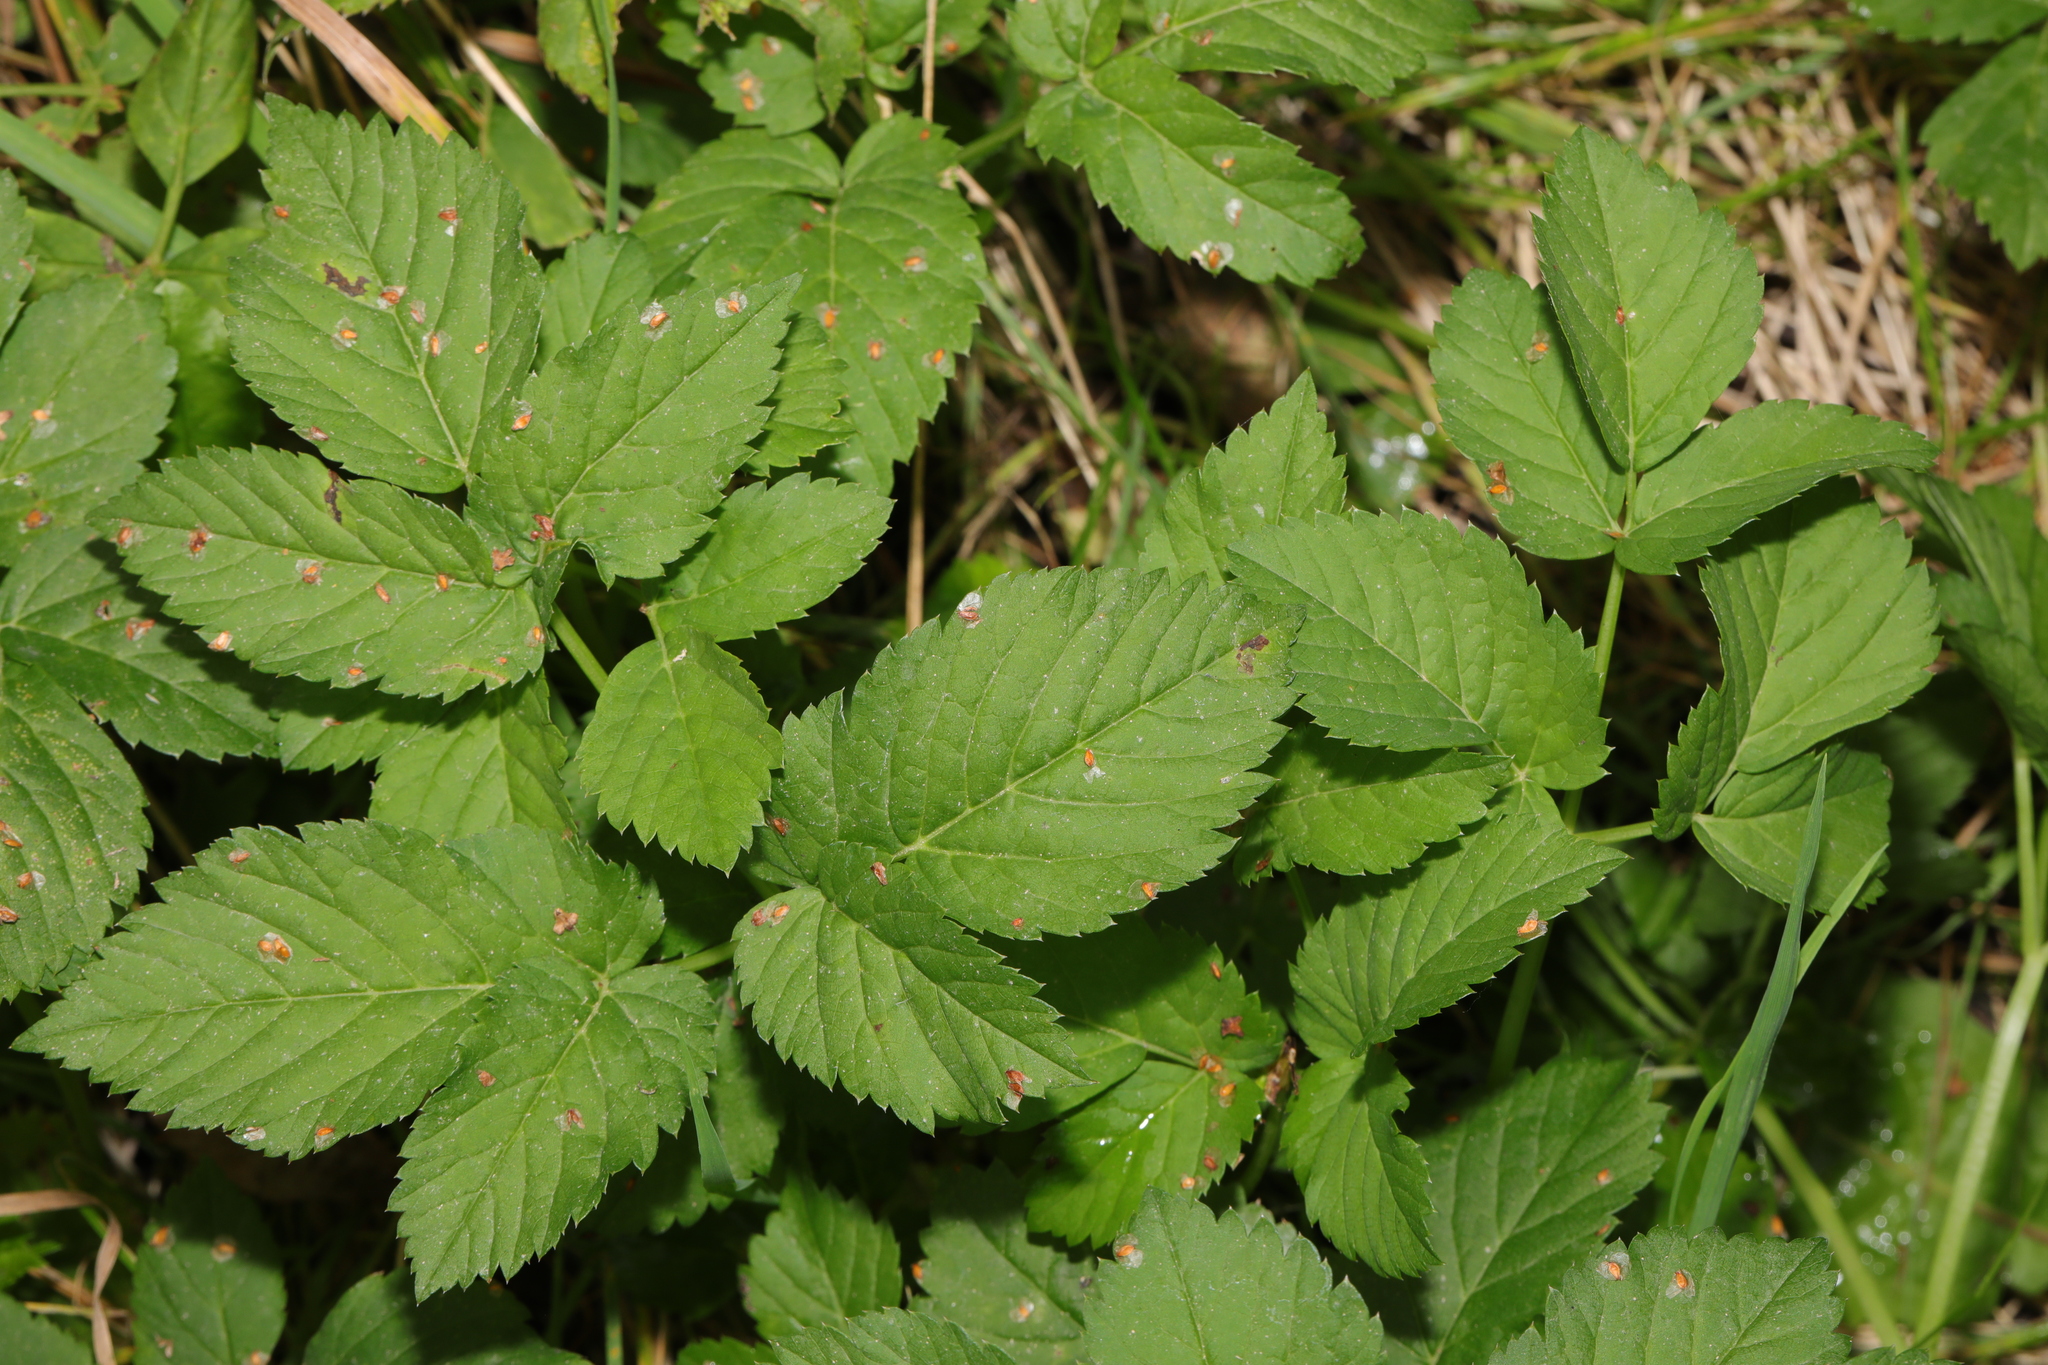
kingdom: Plantae
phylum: Tracheophyta
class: Magnoliopsida
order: Apiales
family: Apiaceae
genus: Aegopodium
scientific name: Aegopodium podagraria
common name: Ground-elder
